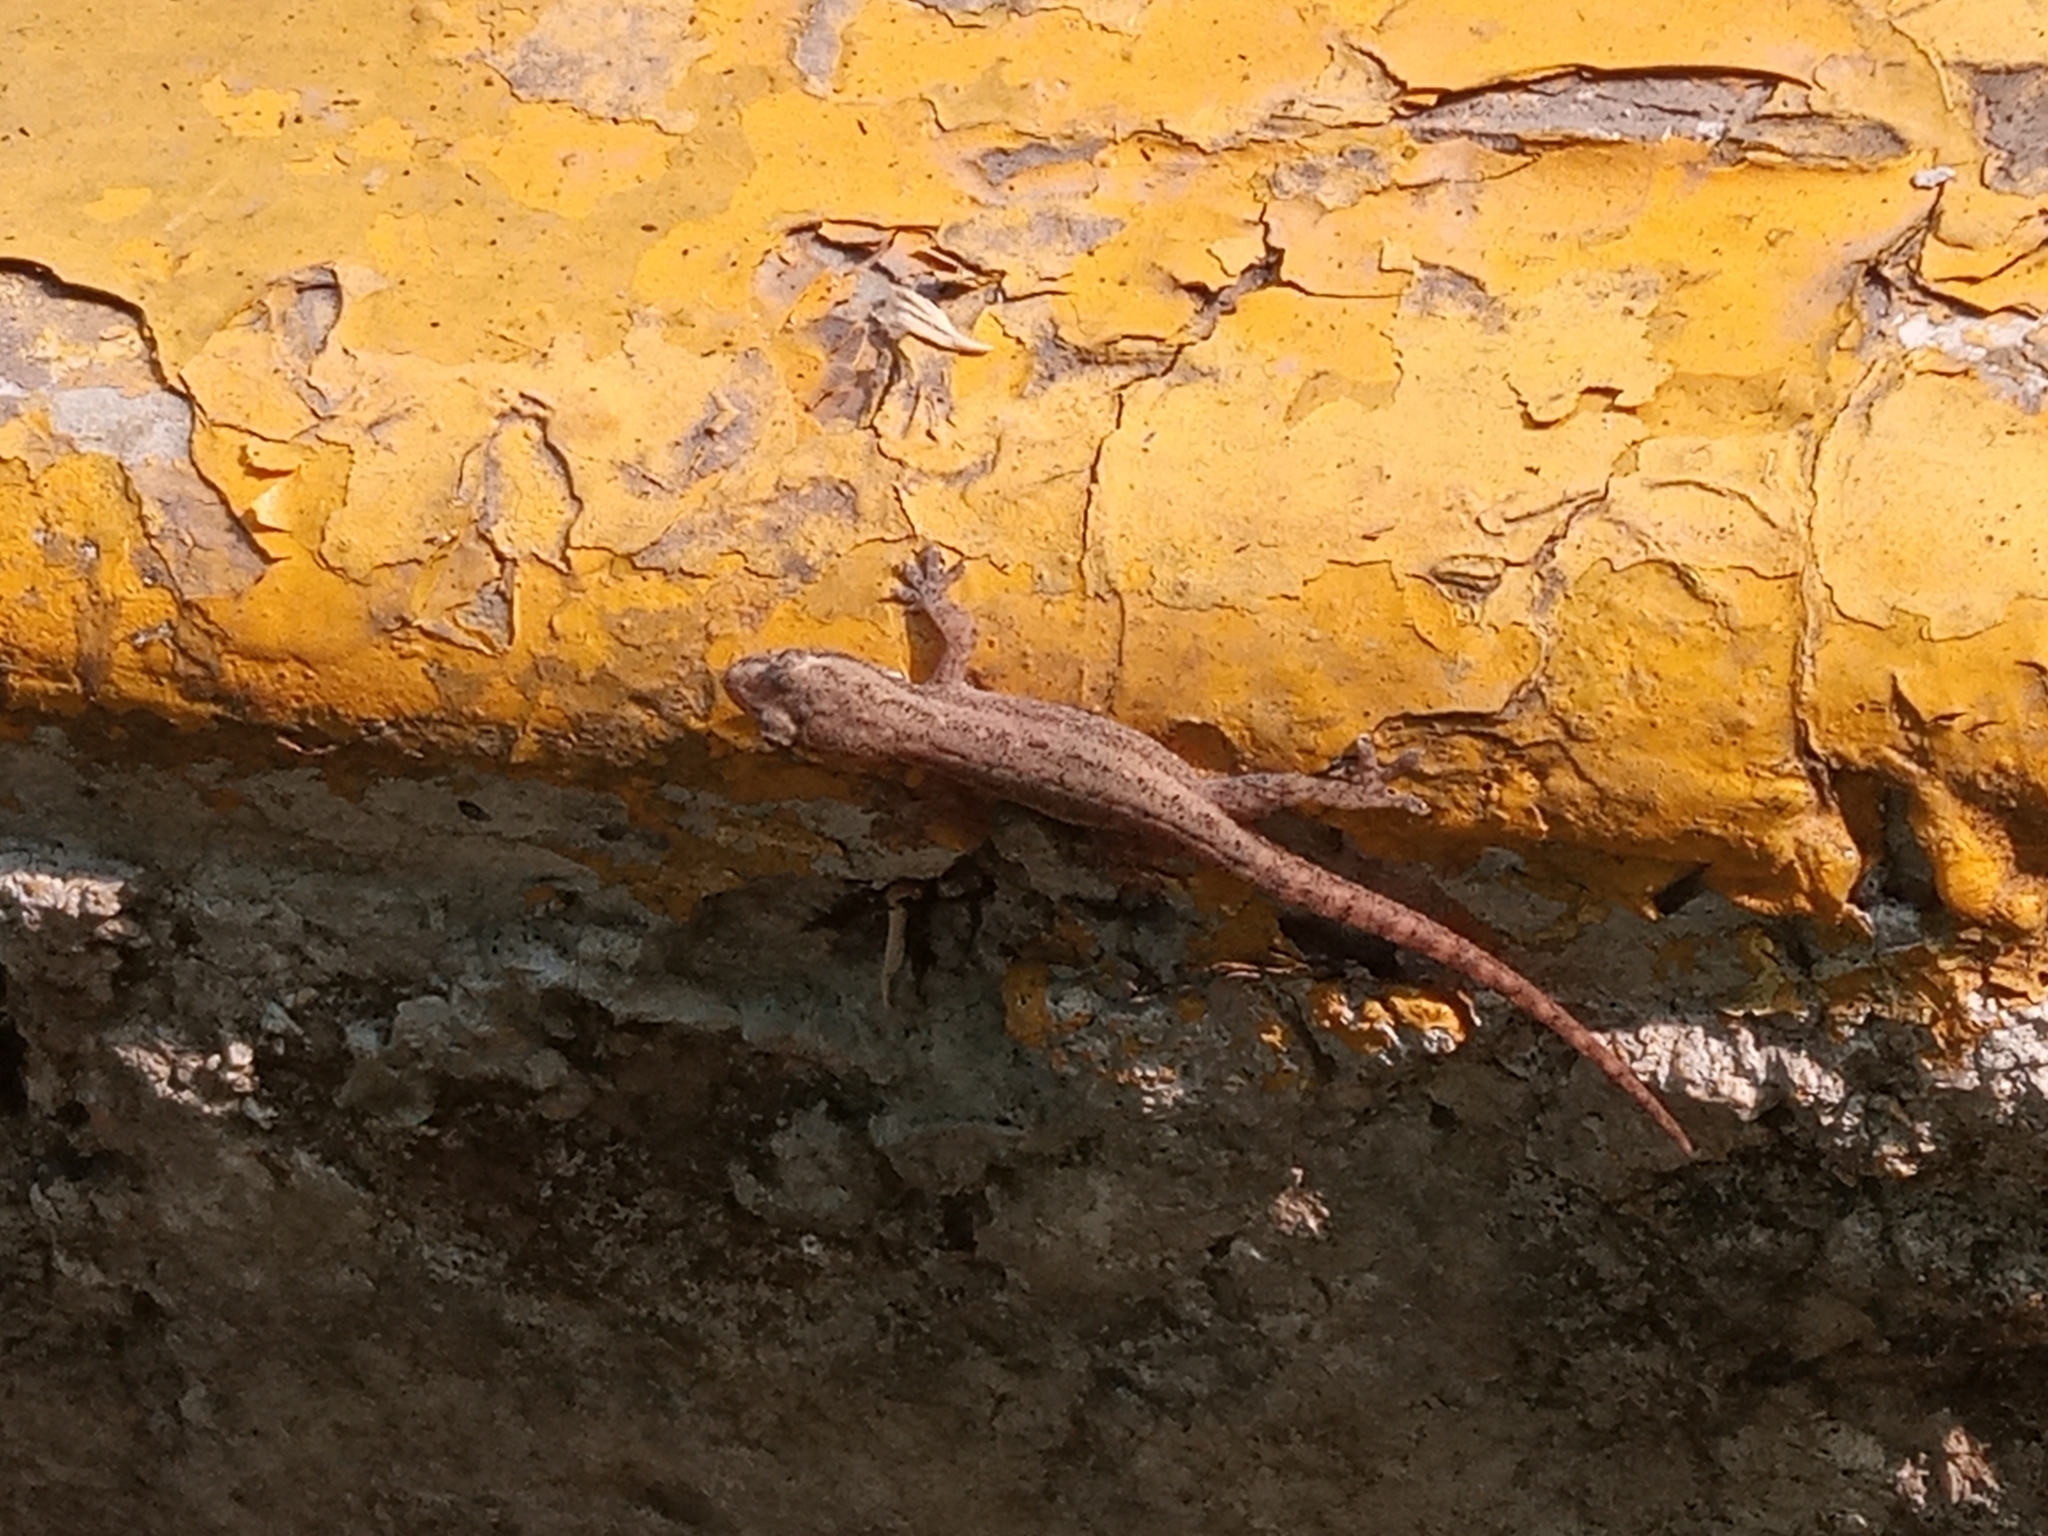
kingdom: Animalia
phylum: Chordata
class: Squamata
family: Gekkonidae
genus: Hemidactylus
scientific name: Hemidactylus frenatus
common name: Common house gecko
